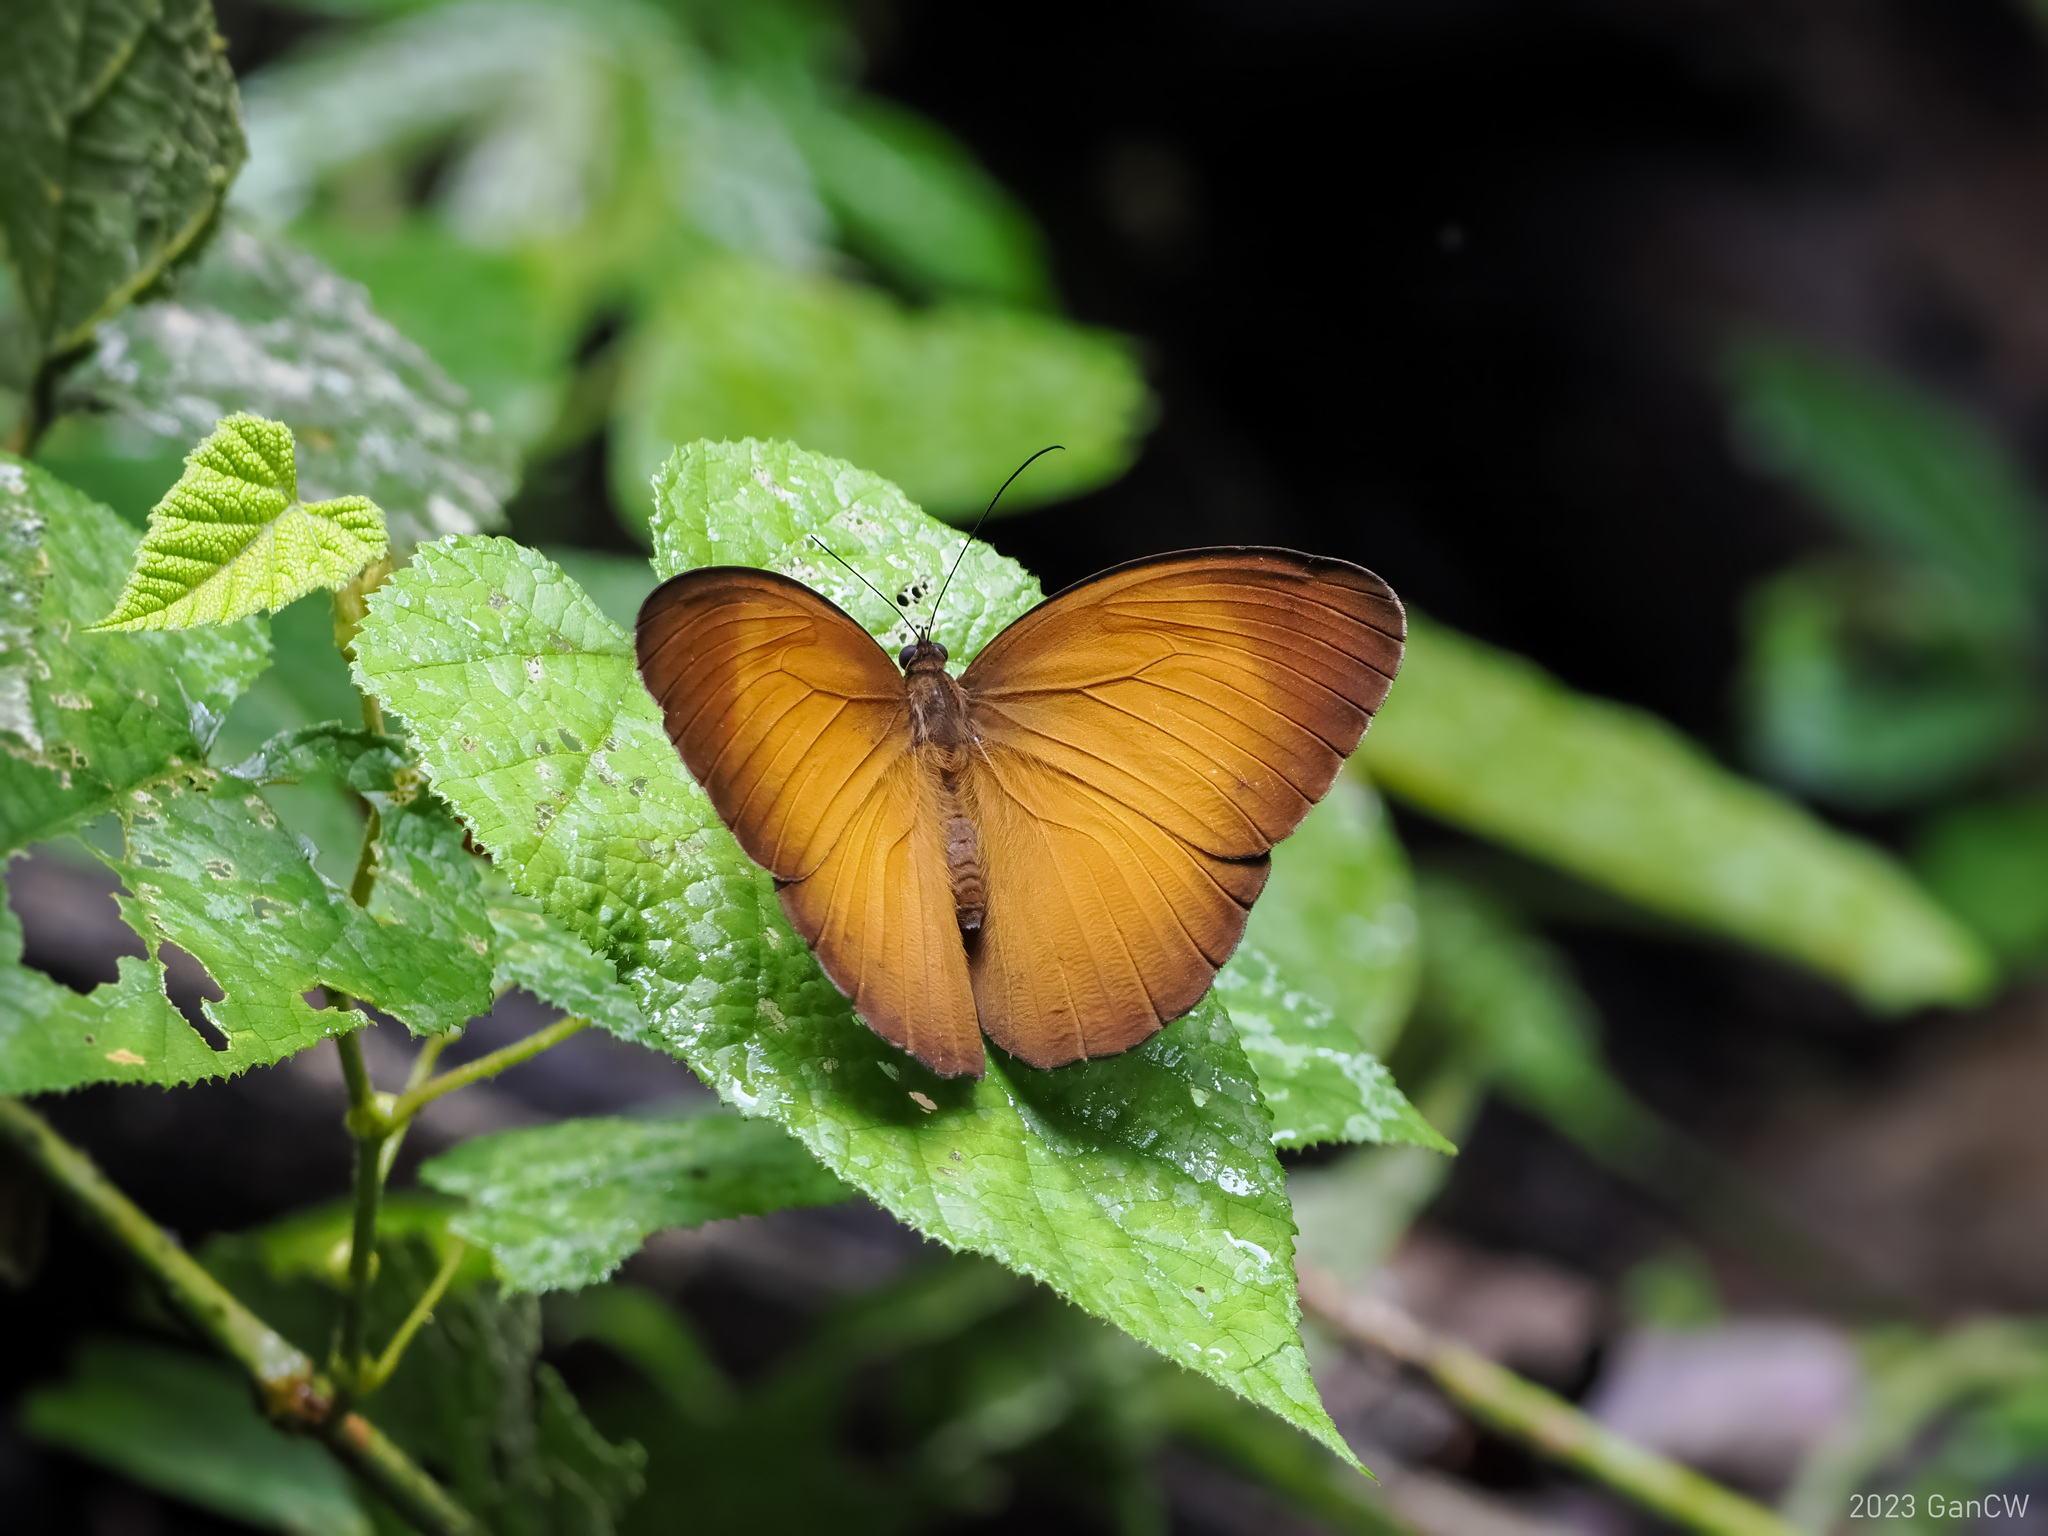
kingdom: Animalia
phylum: Arthropoda
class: Insecta
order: Lepidoptera
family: Nymphalidae
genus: Faunis
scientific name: Faunis menado
